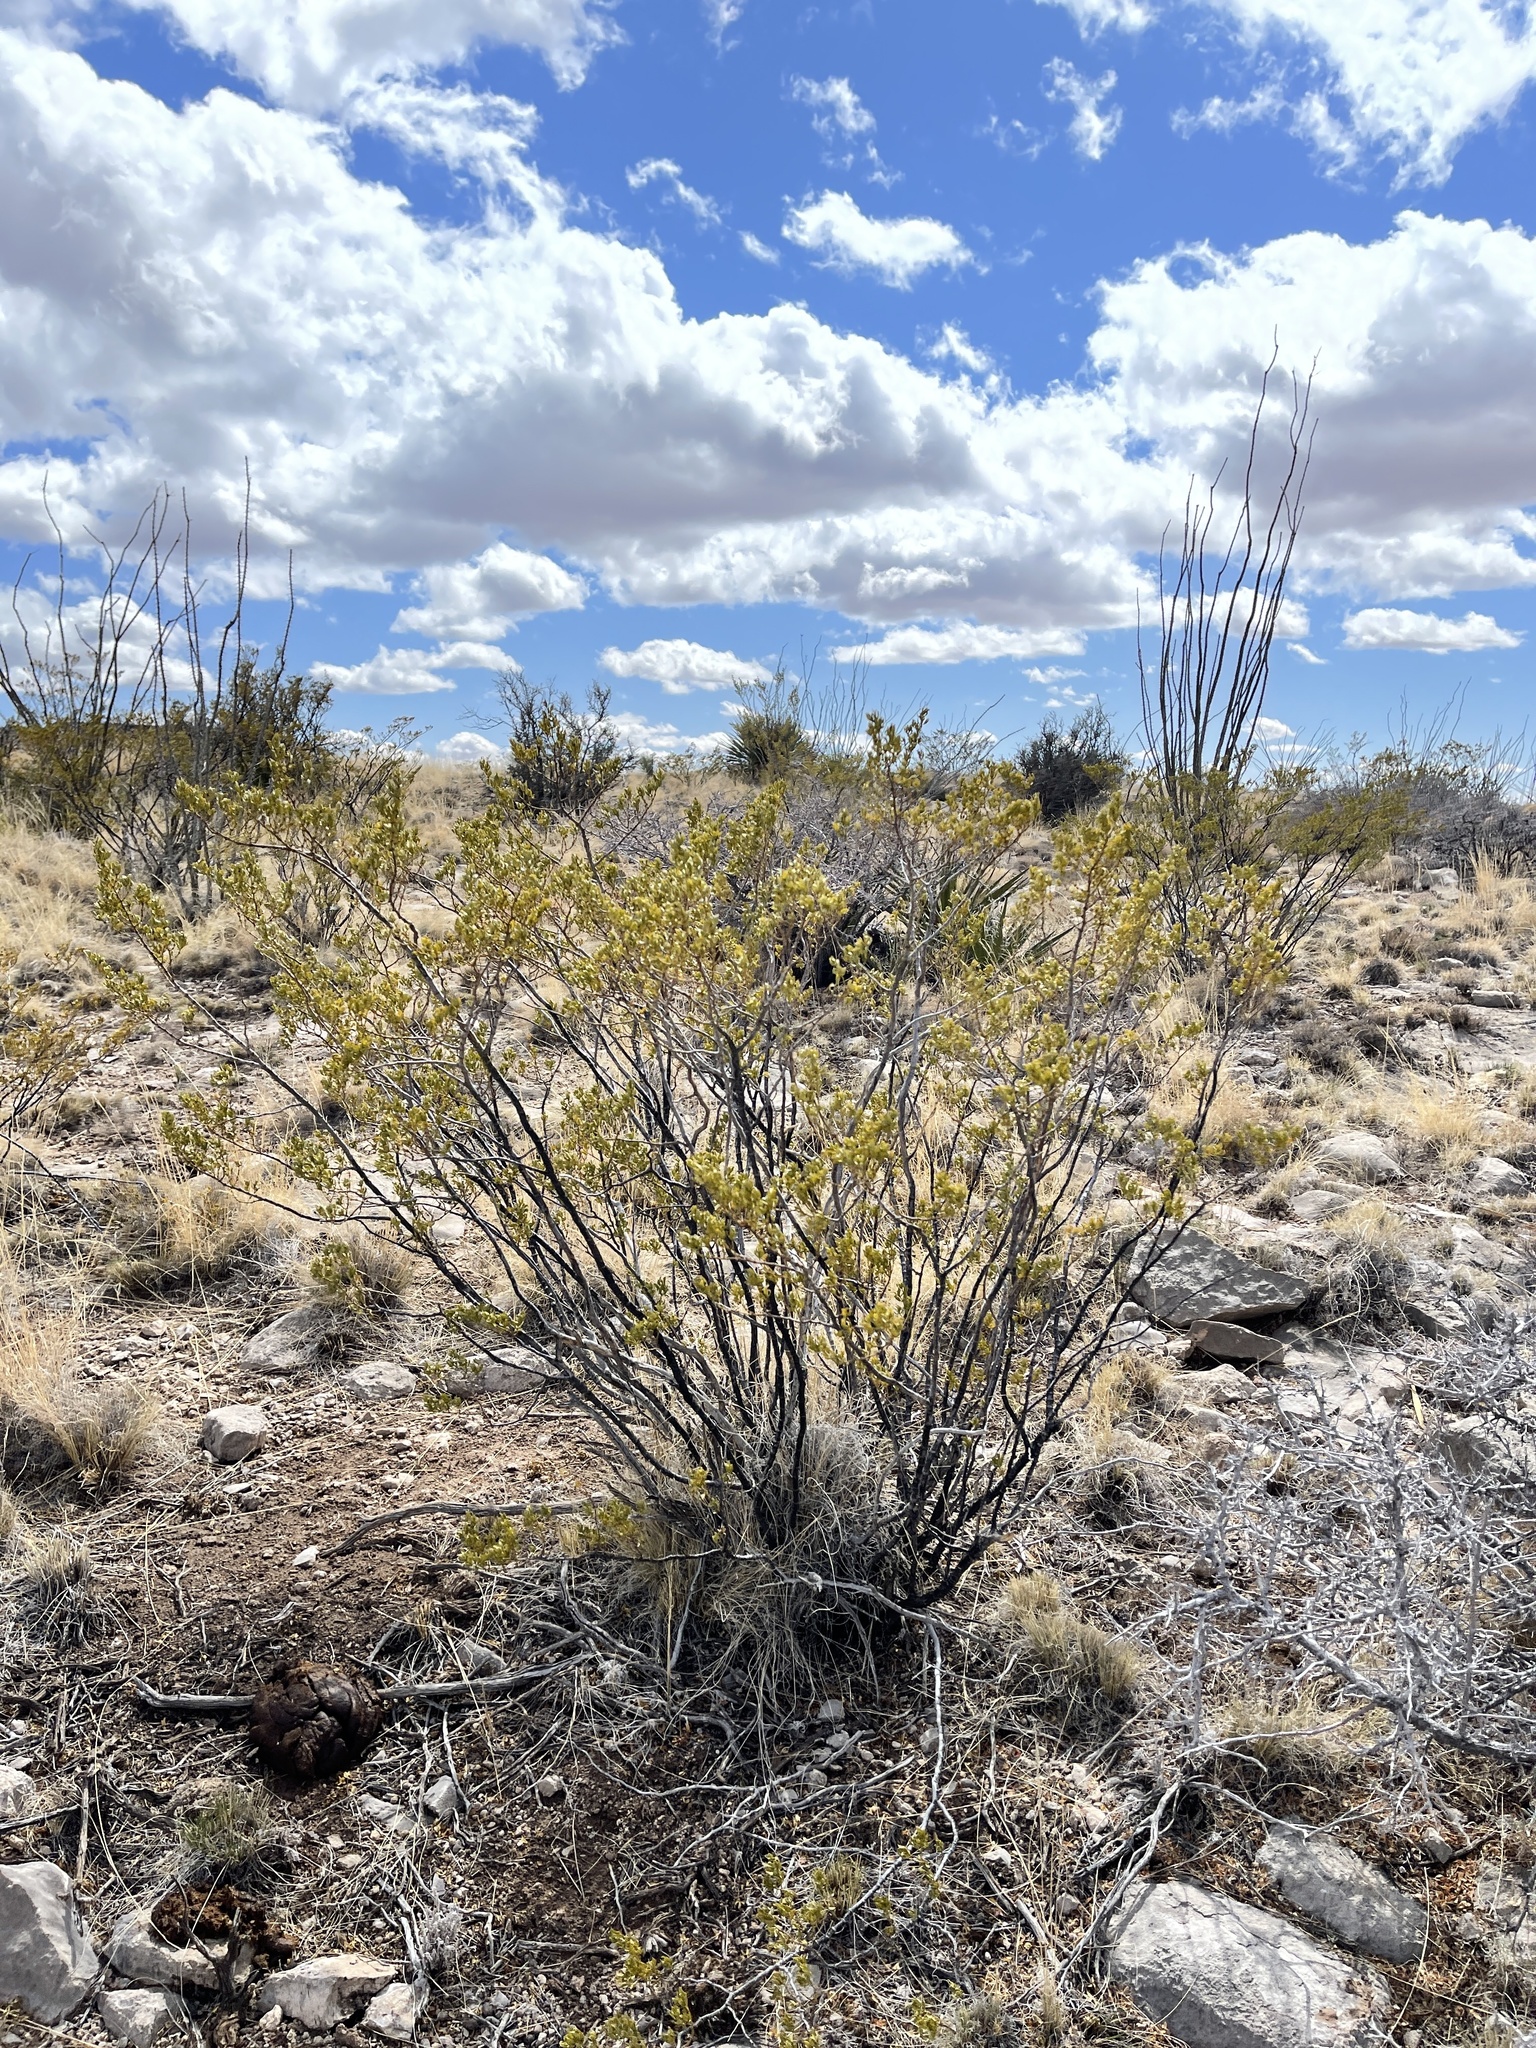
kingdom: Plantae
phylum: Tracheophyta
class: Magnoliopsida
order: Zygophyllales
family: Zygophyllaceae
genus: Larrea
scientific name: Larrea tridentata
